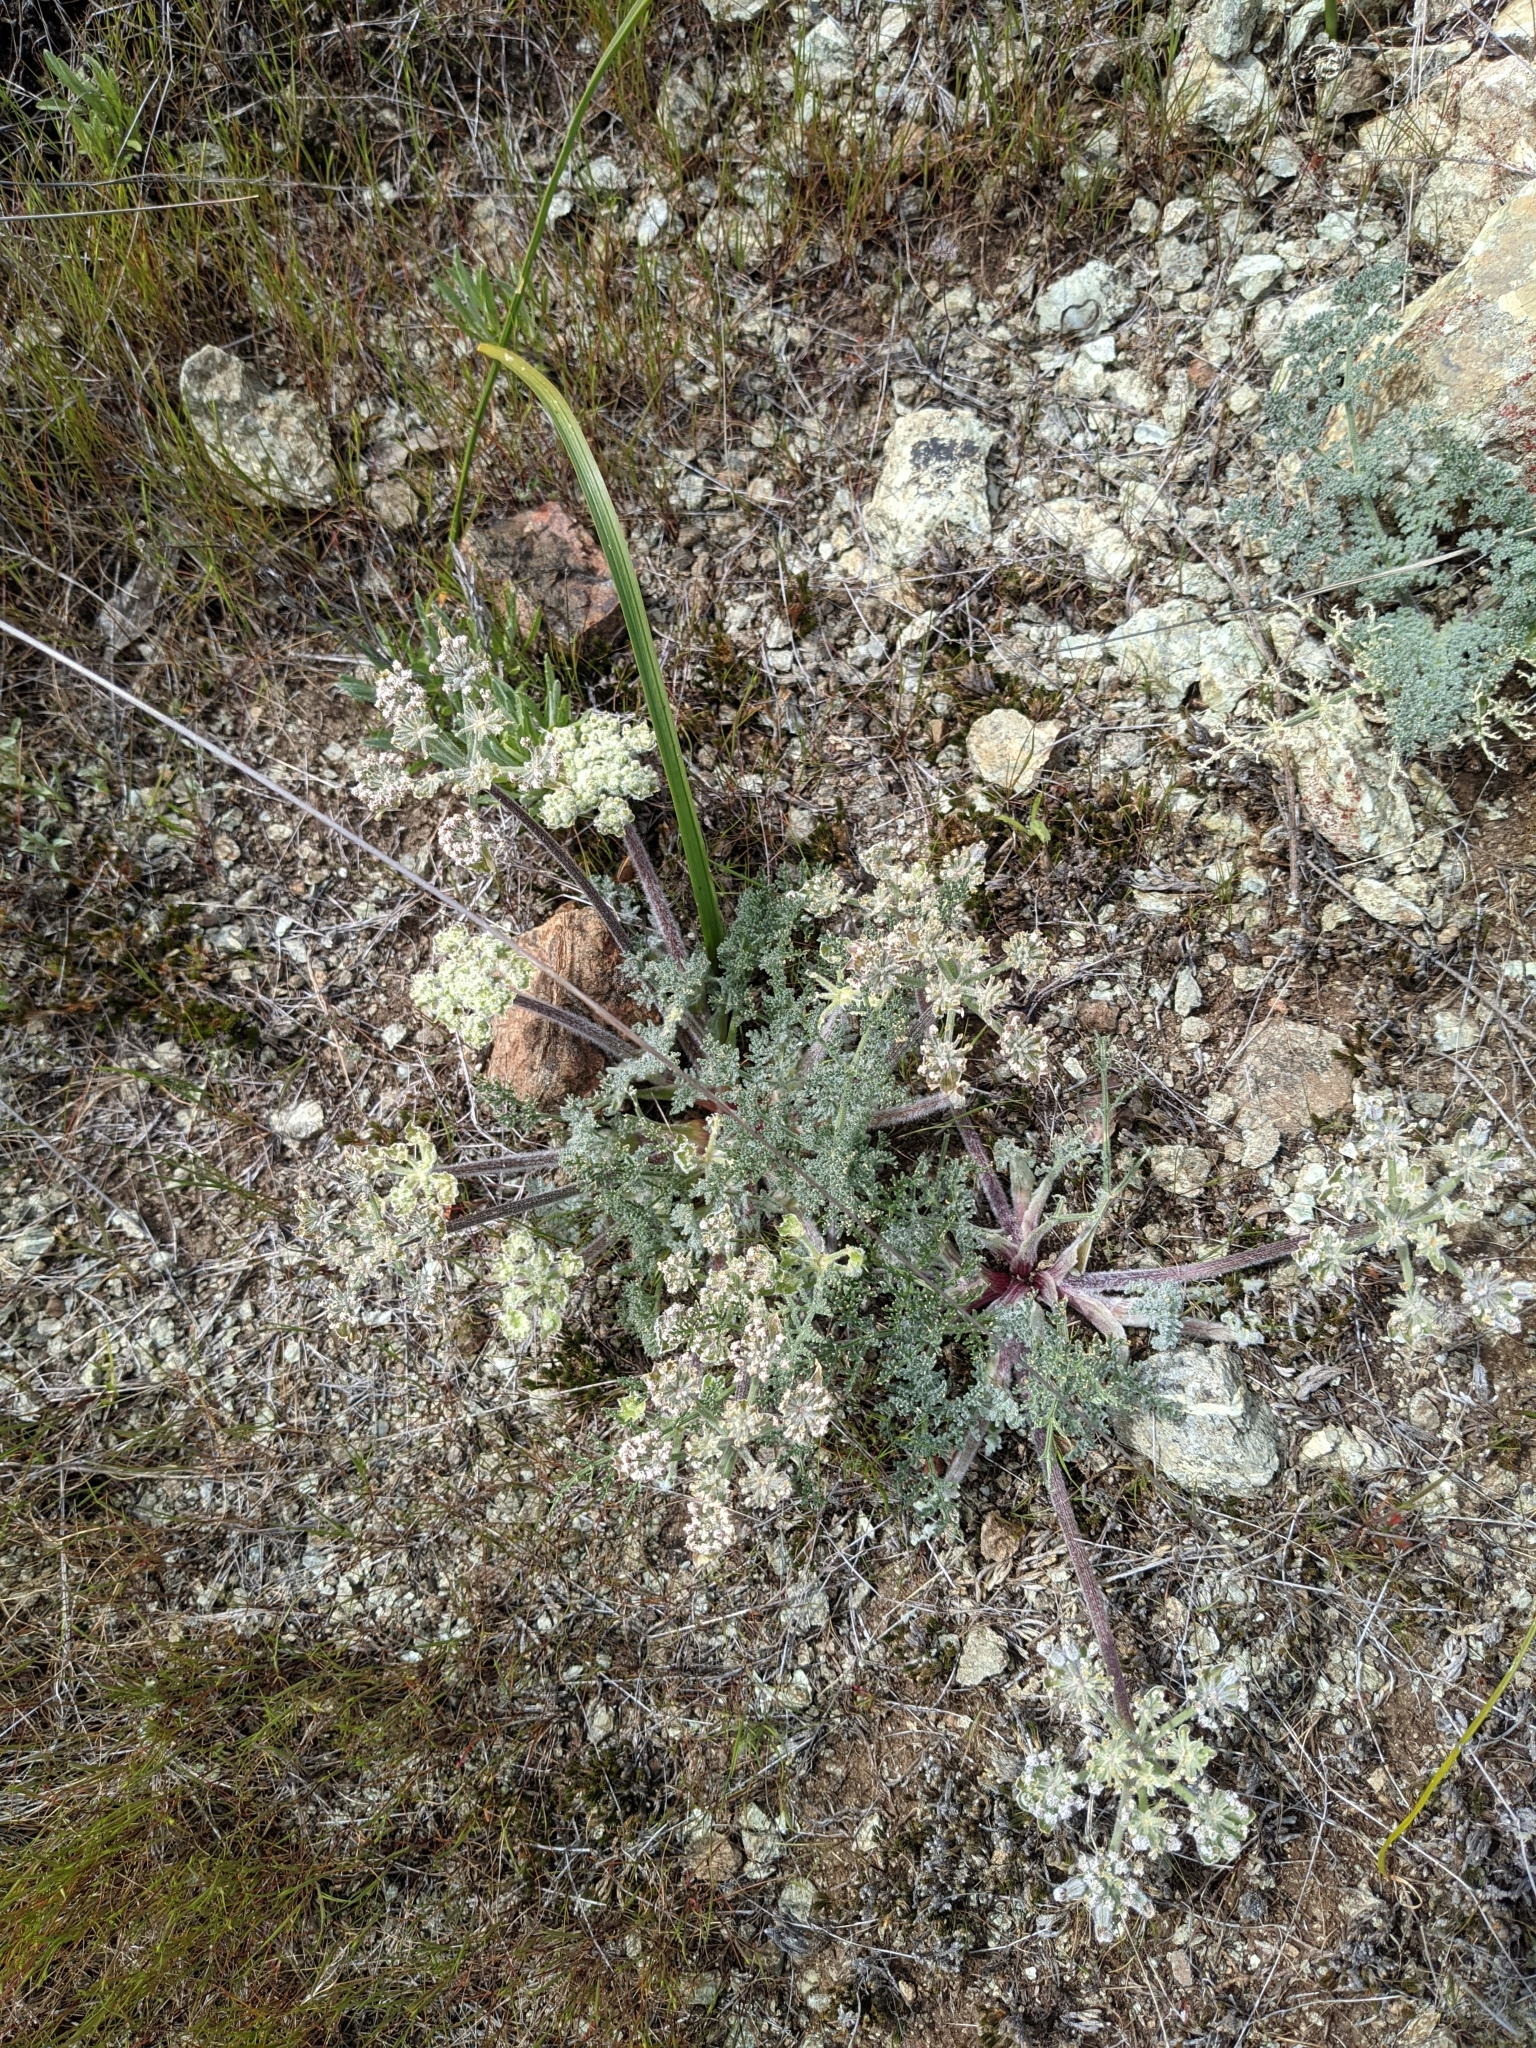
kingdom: Plantae
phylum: Tracheophyta
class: Magnoliopsida
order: Apiales
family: Apiaceae
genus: Lomatium
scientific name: Lomatium dasycarpum
